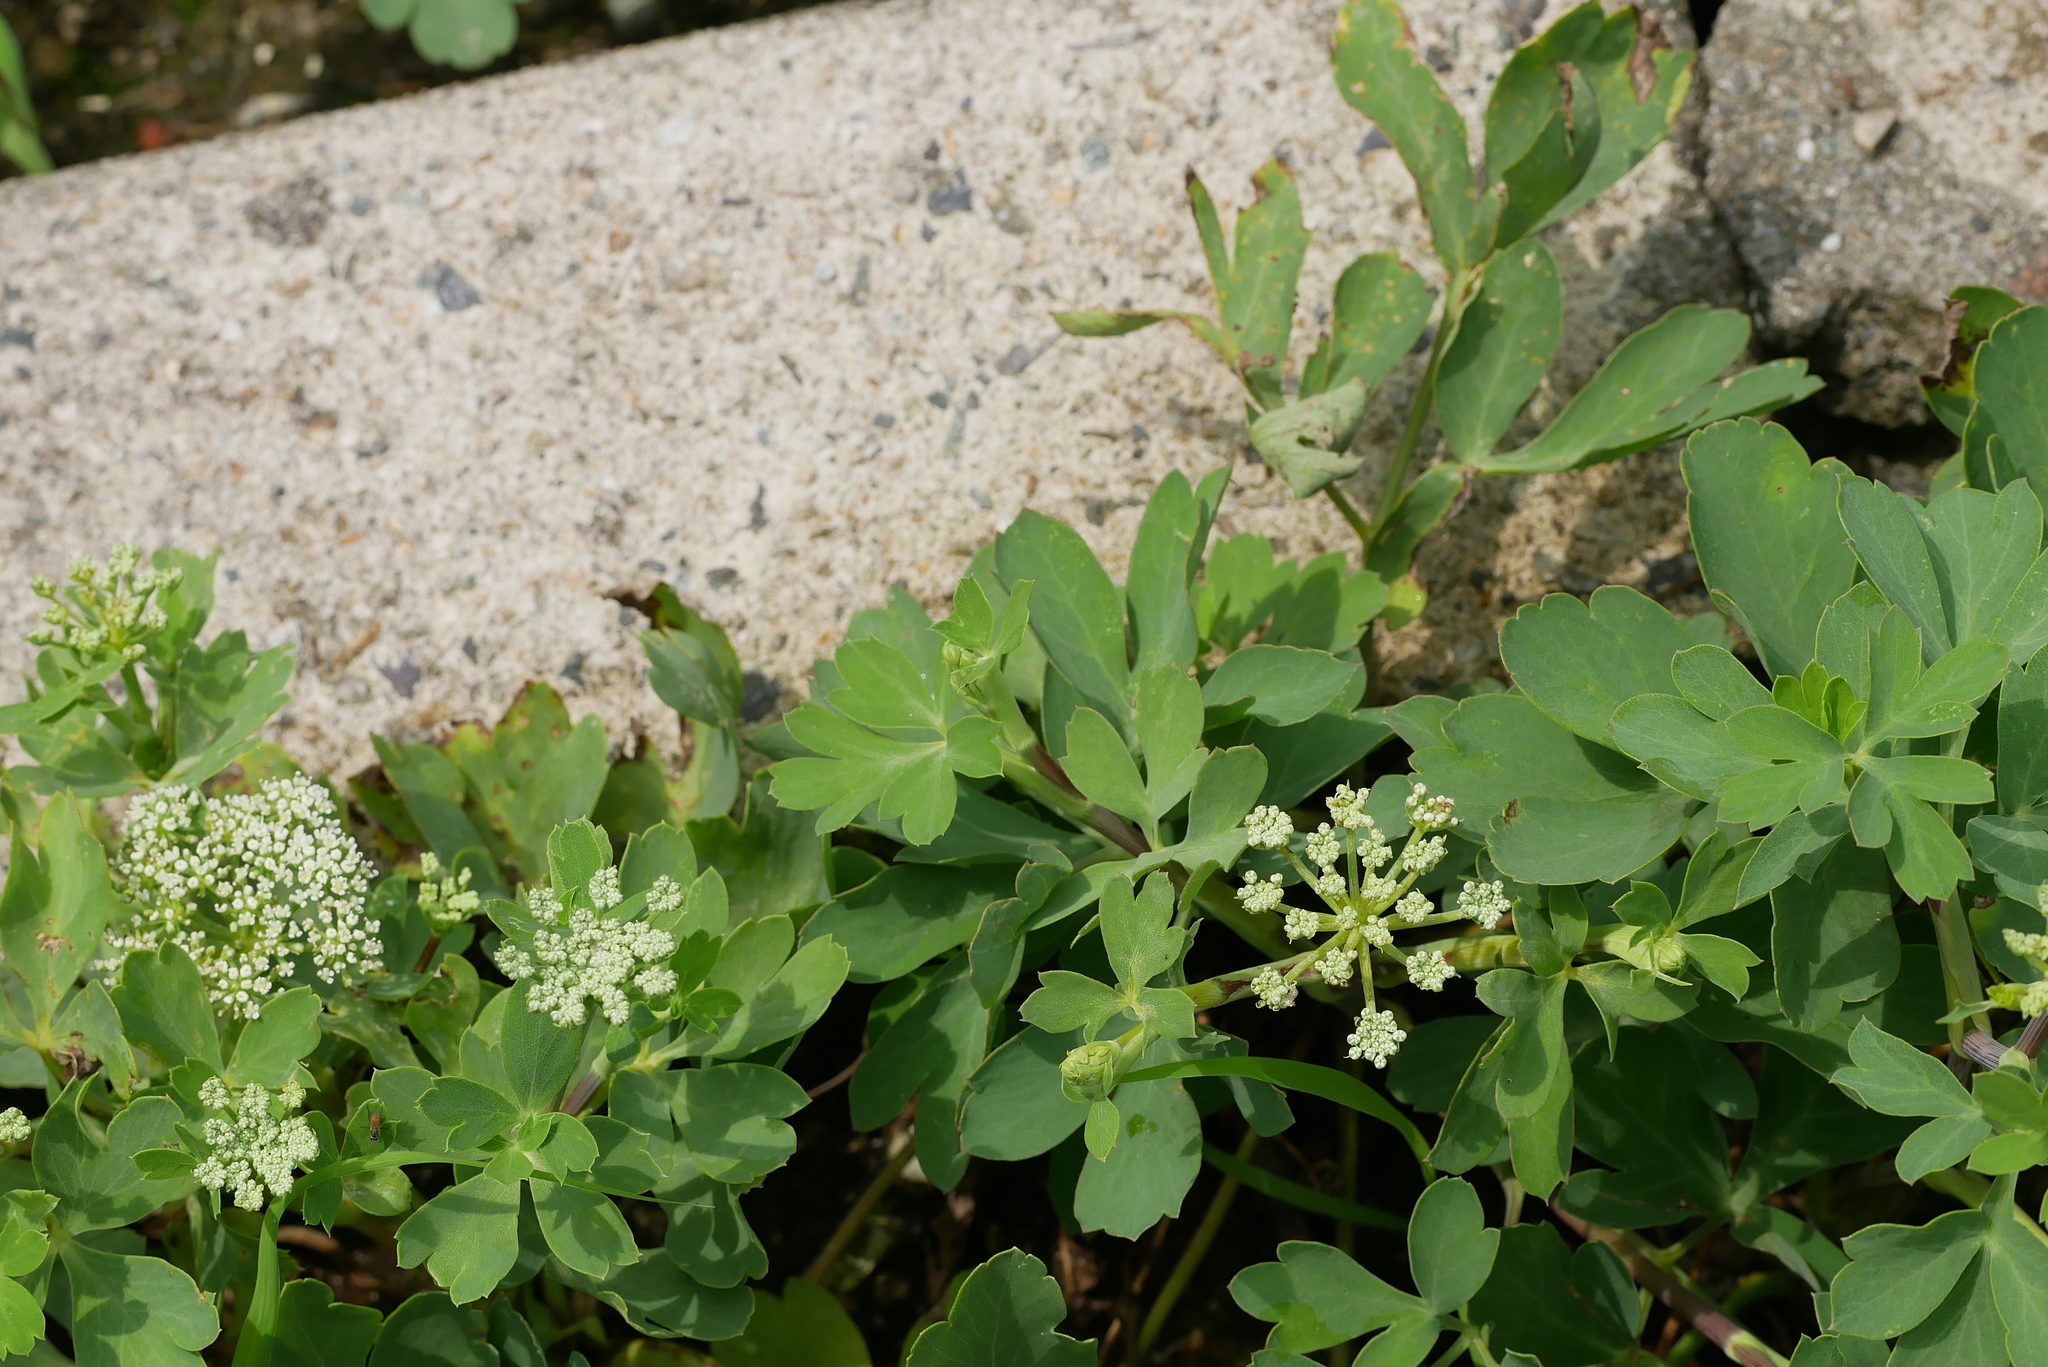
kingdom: Plantae
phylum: Tracheophyta
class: Magnoliopsida
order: Apiales
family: Apiaceae
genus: Peucedanum
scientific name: Peucedanum japonicum
